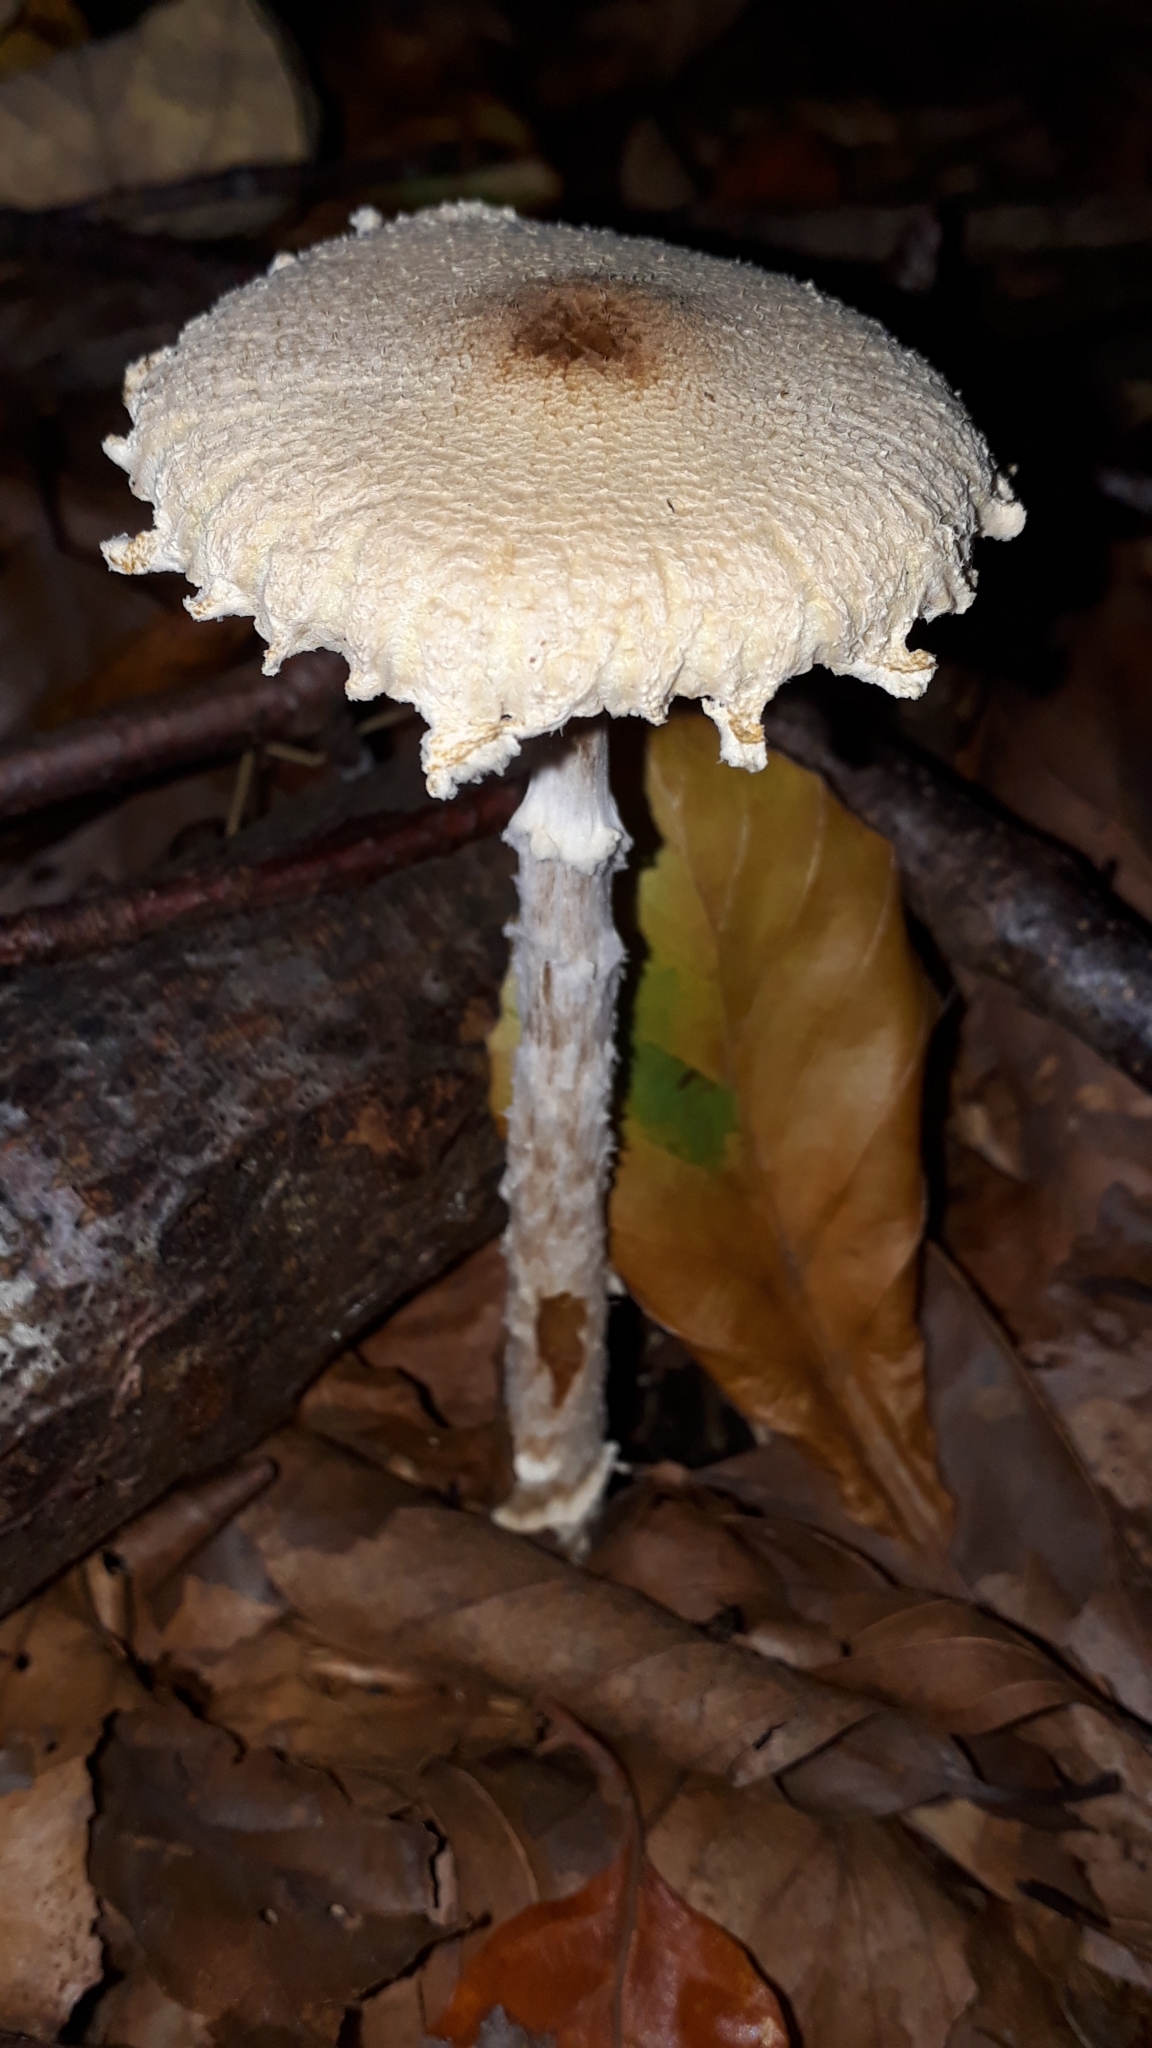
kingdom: Fungi
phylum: Basidiomycota
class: Agaricomycetes
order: Agaricales
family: Agaricaceae
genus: Lepiota
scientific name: Lepiota clypeolaria
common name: Shield dapperling
